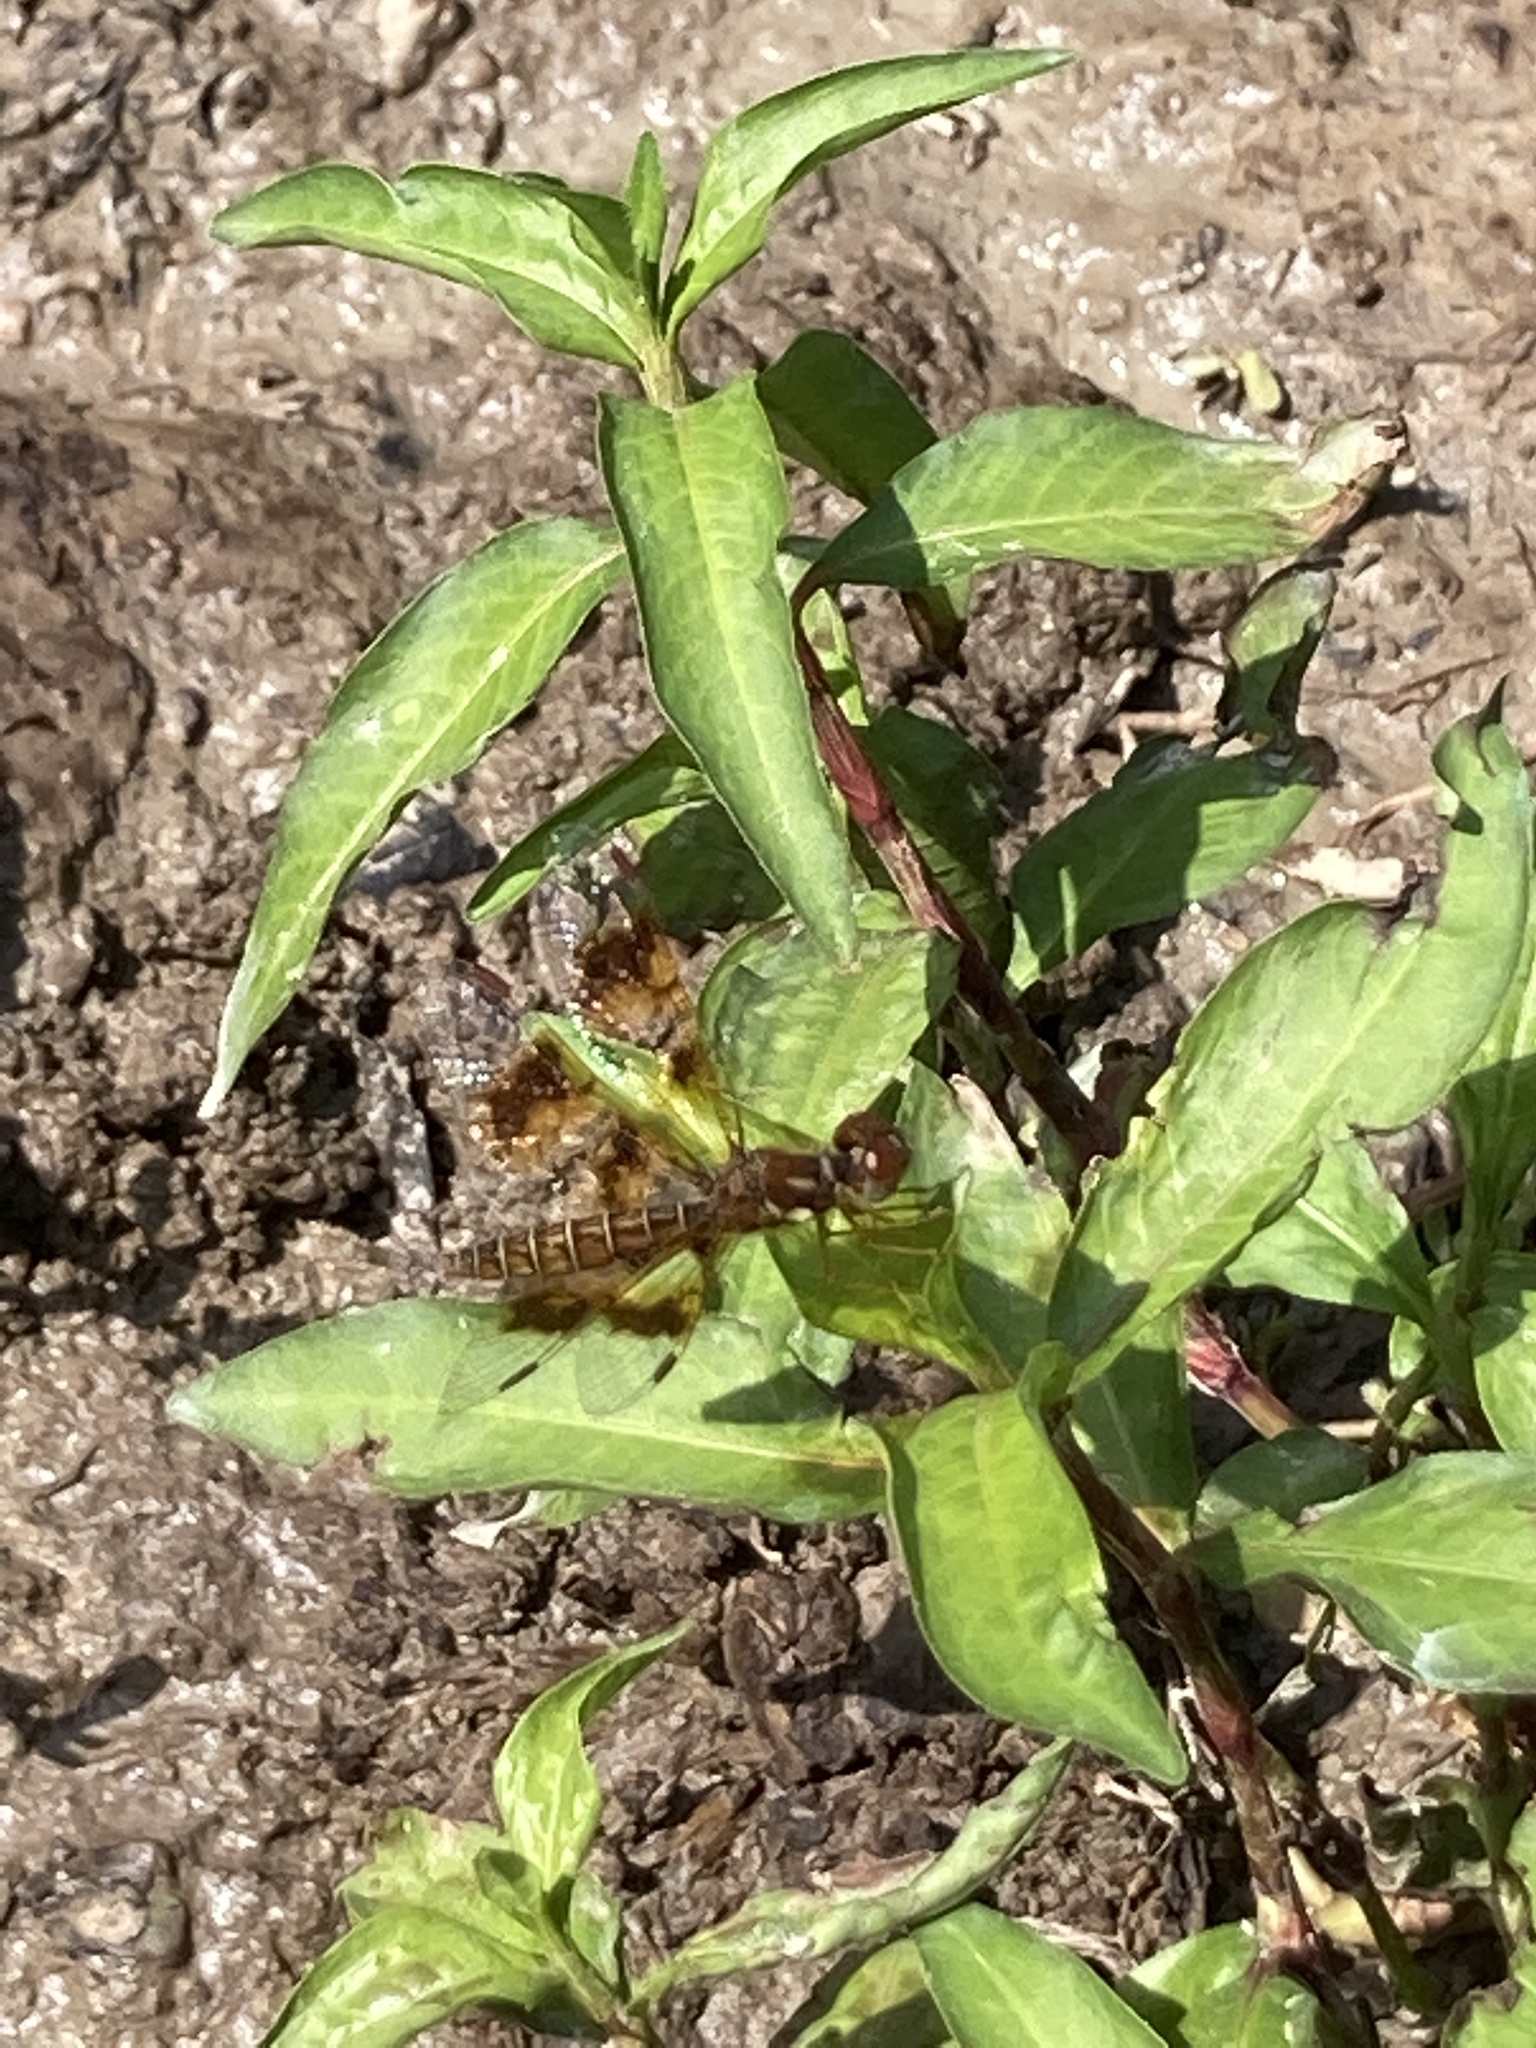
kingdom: Animalia
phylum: Arthropoda
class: Insecta
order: Odonata
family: Libellulidae
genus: Perithemis
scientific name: Perithemis tenera
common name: Eastern amberwing
